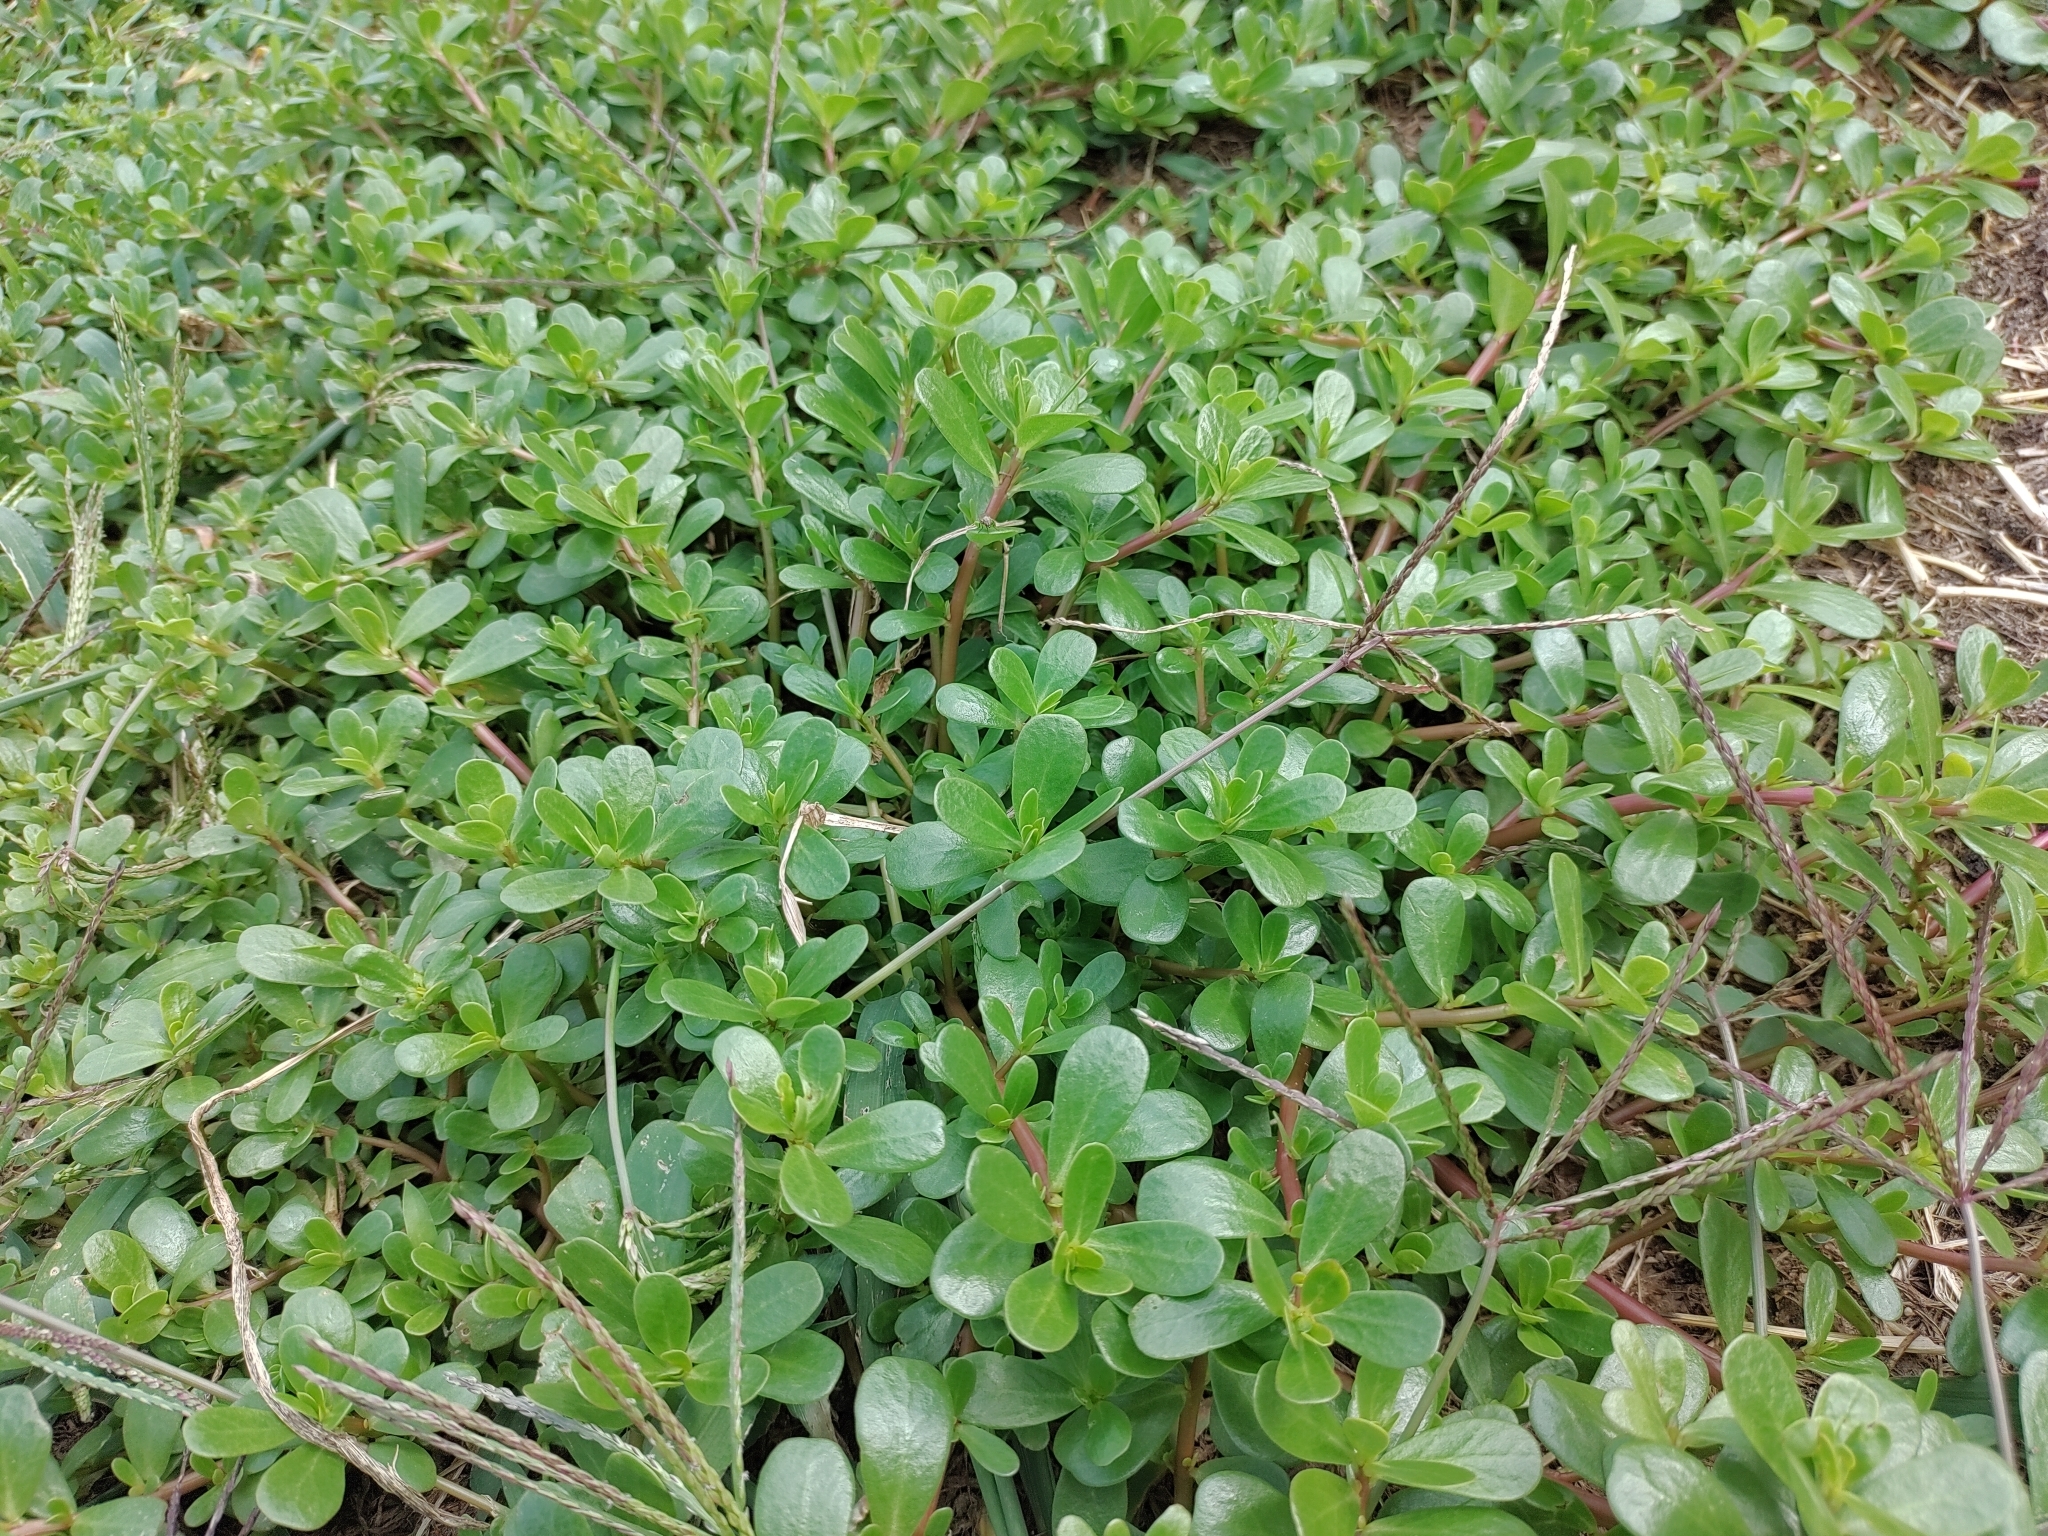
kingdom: Plantae
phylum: Tracheophyta
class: Magnoliopsida
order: Caryophyllales
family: Portulacaceae
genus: Portulaca
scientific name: Portulaca oleracea
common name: Common purslane
